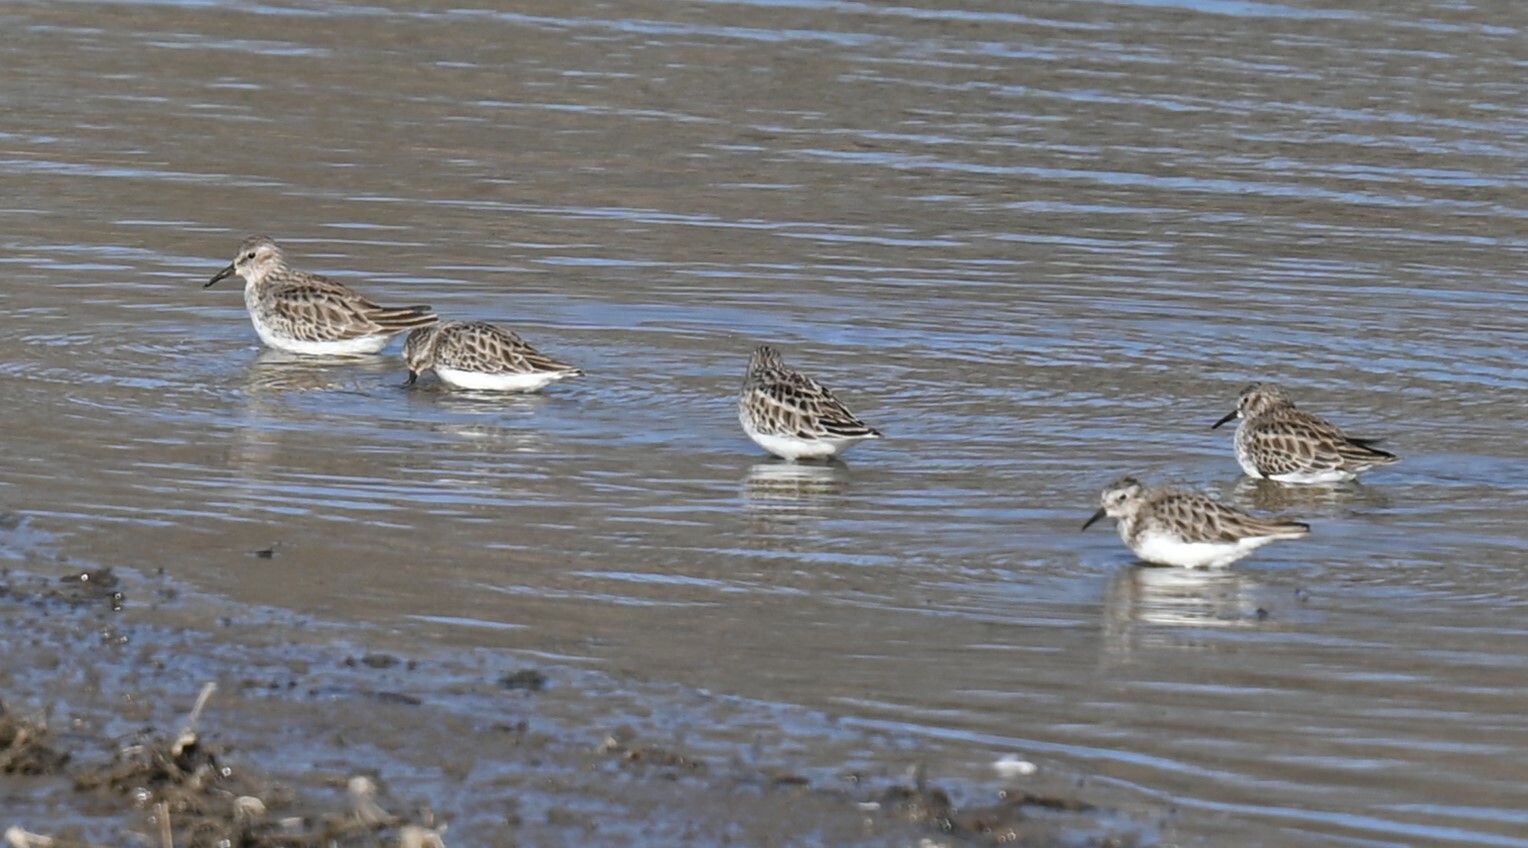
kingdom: Animalia
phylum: Chordata
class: Aves
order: Charadriiformes
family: Scolopacidae
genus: Calidris
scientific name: Calidris minutilla
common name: Least sandpiper
